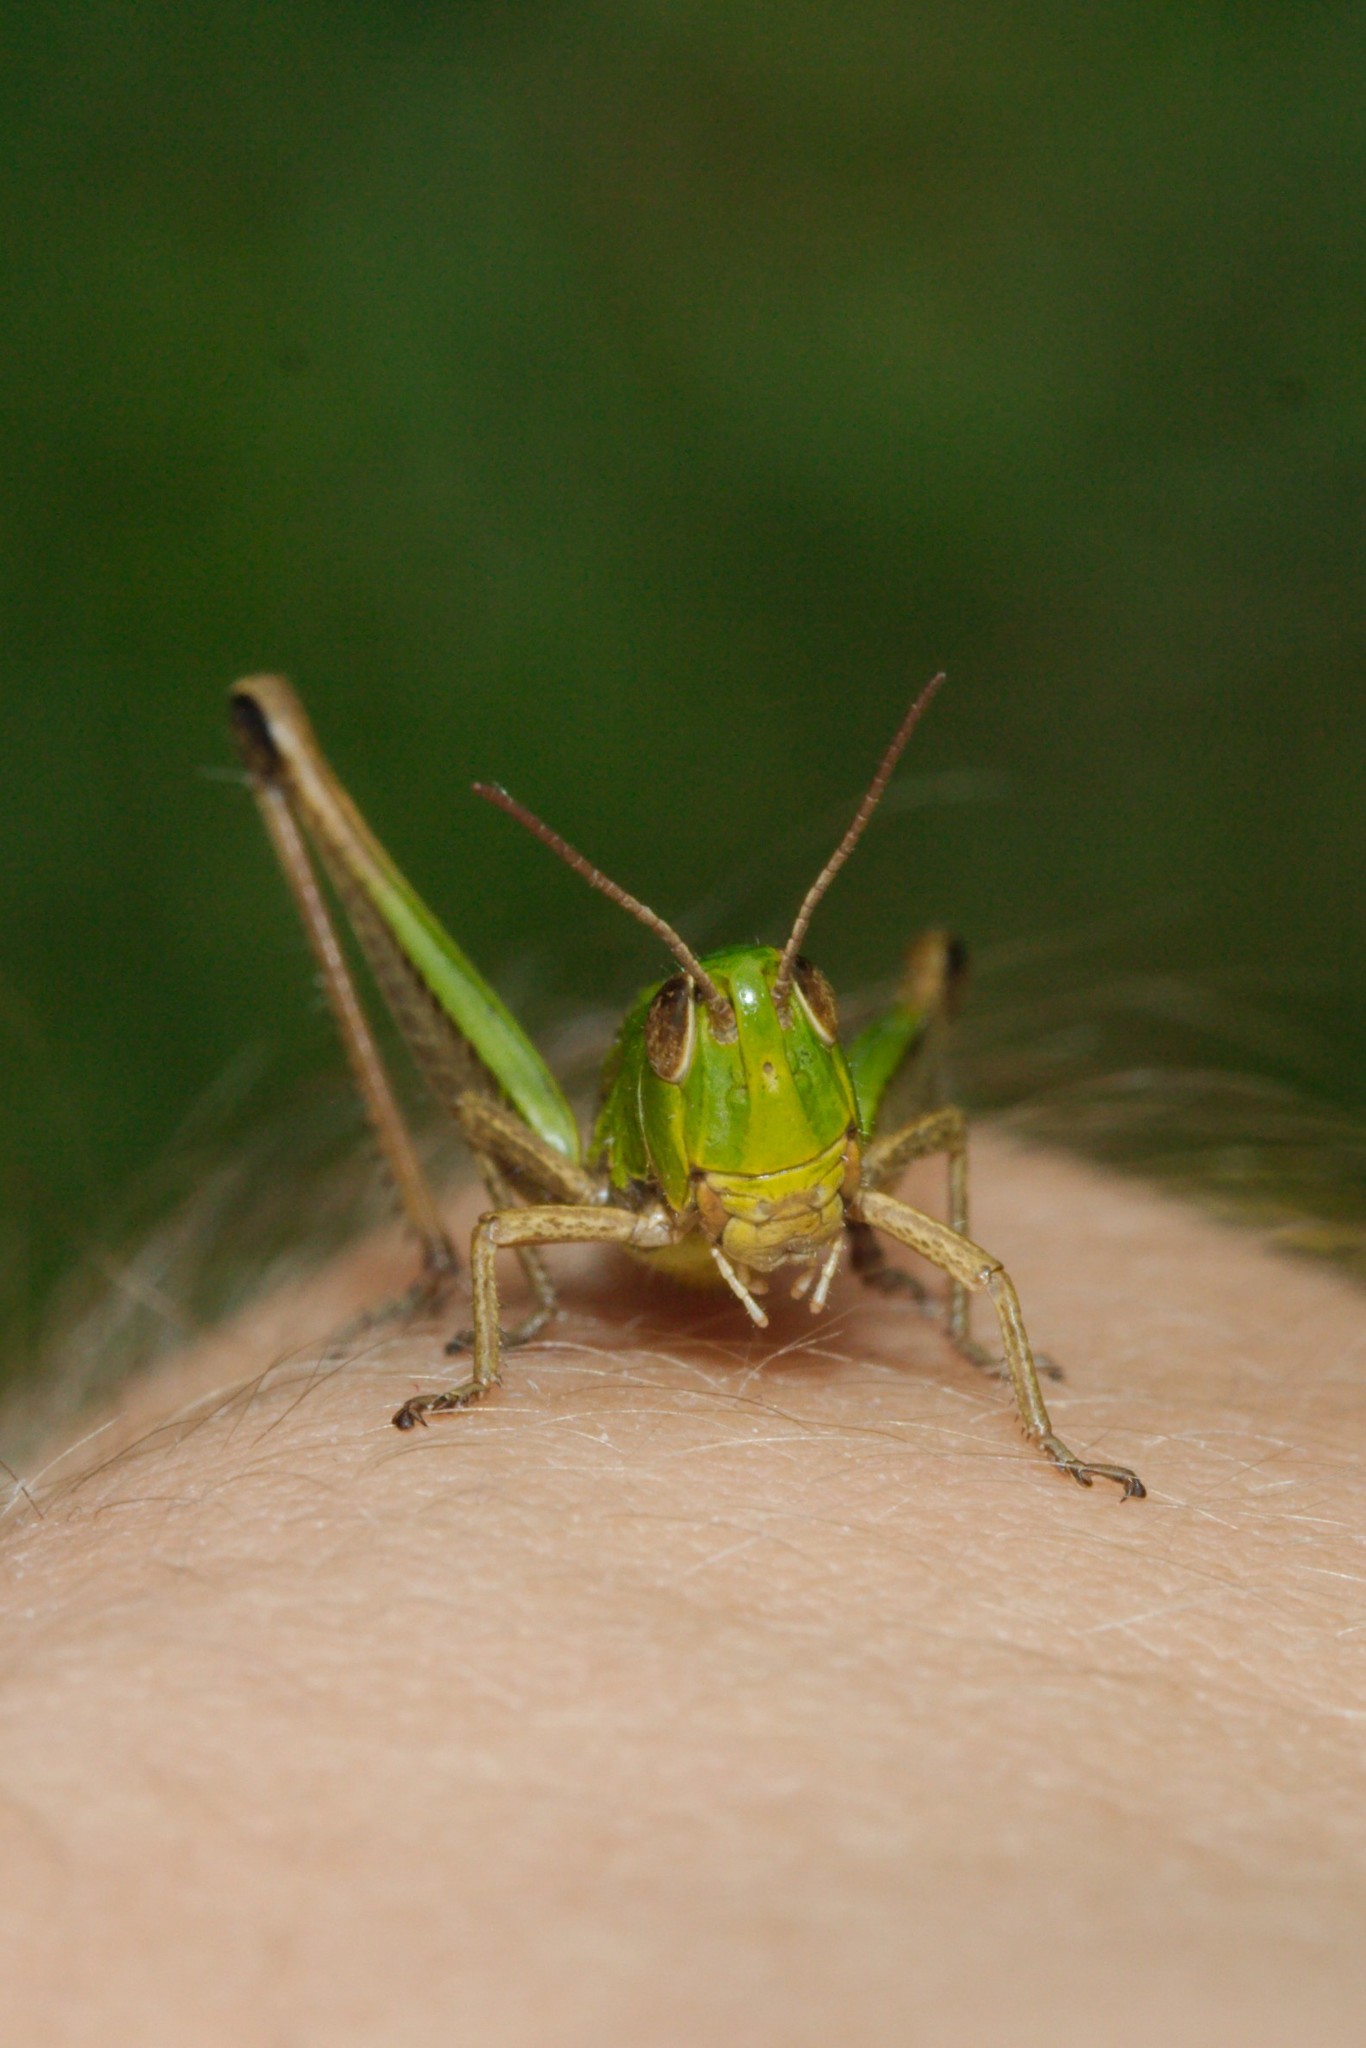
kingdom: Animalia
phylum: Arthropoda
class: Insecta
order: Orthoptera
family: Acrididae
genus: Pseudochorthippus
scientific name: Pseudochorthippus parallelus
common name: Meadow grasshopper
